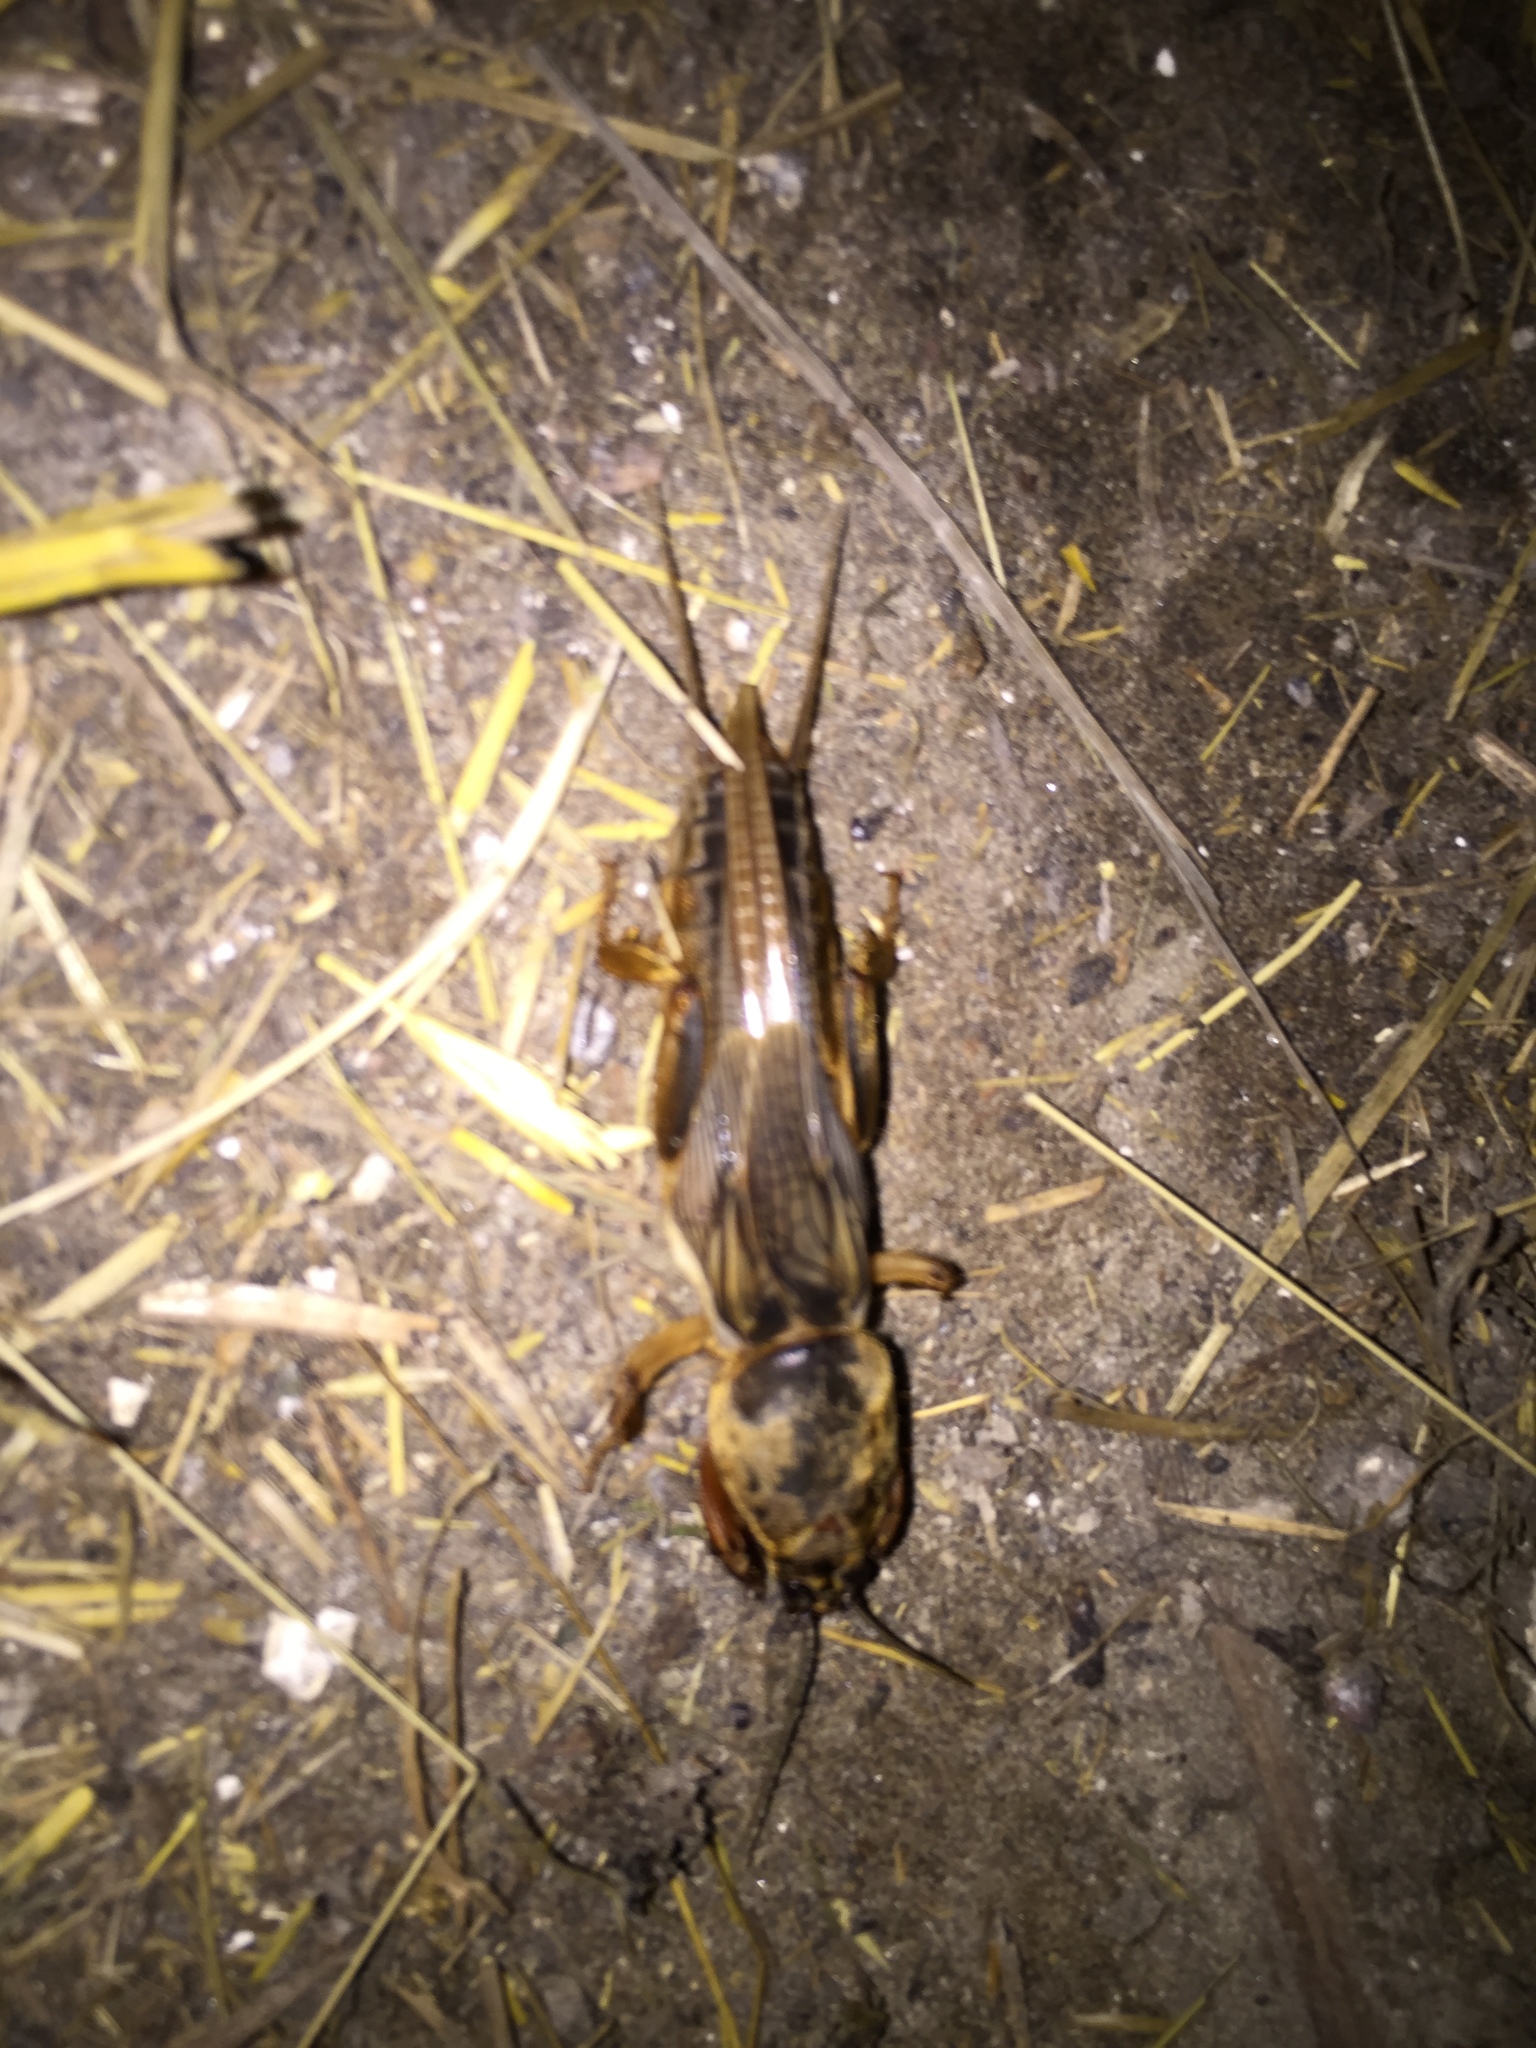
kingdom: Animalia
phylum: Arthropoda
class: Insecta
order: Orthoptera
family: Gryllotalpidae
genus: Gryllotalpa
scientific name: Gryllotalpa gryllotalpa
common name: European mole cricket
